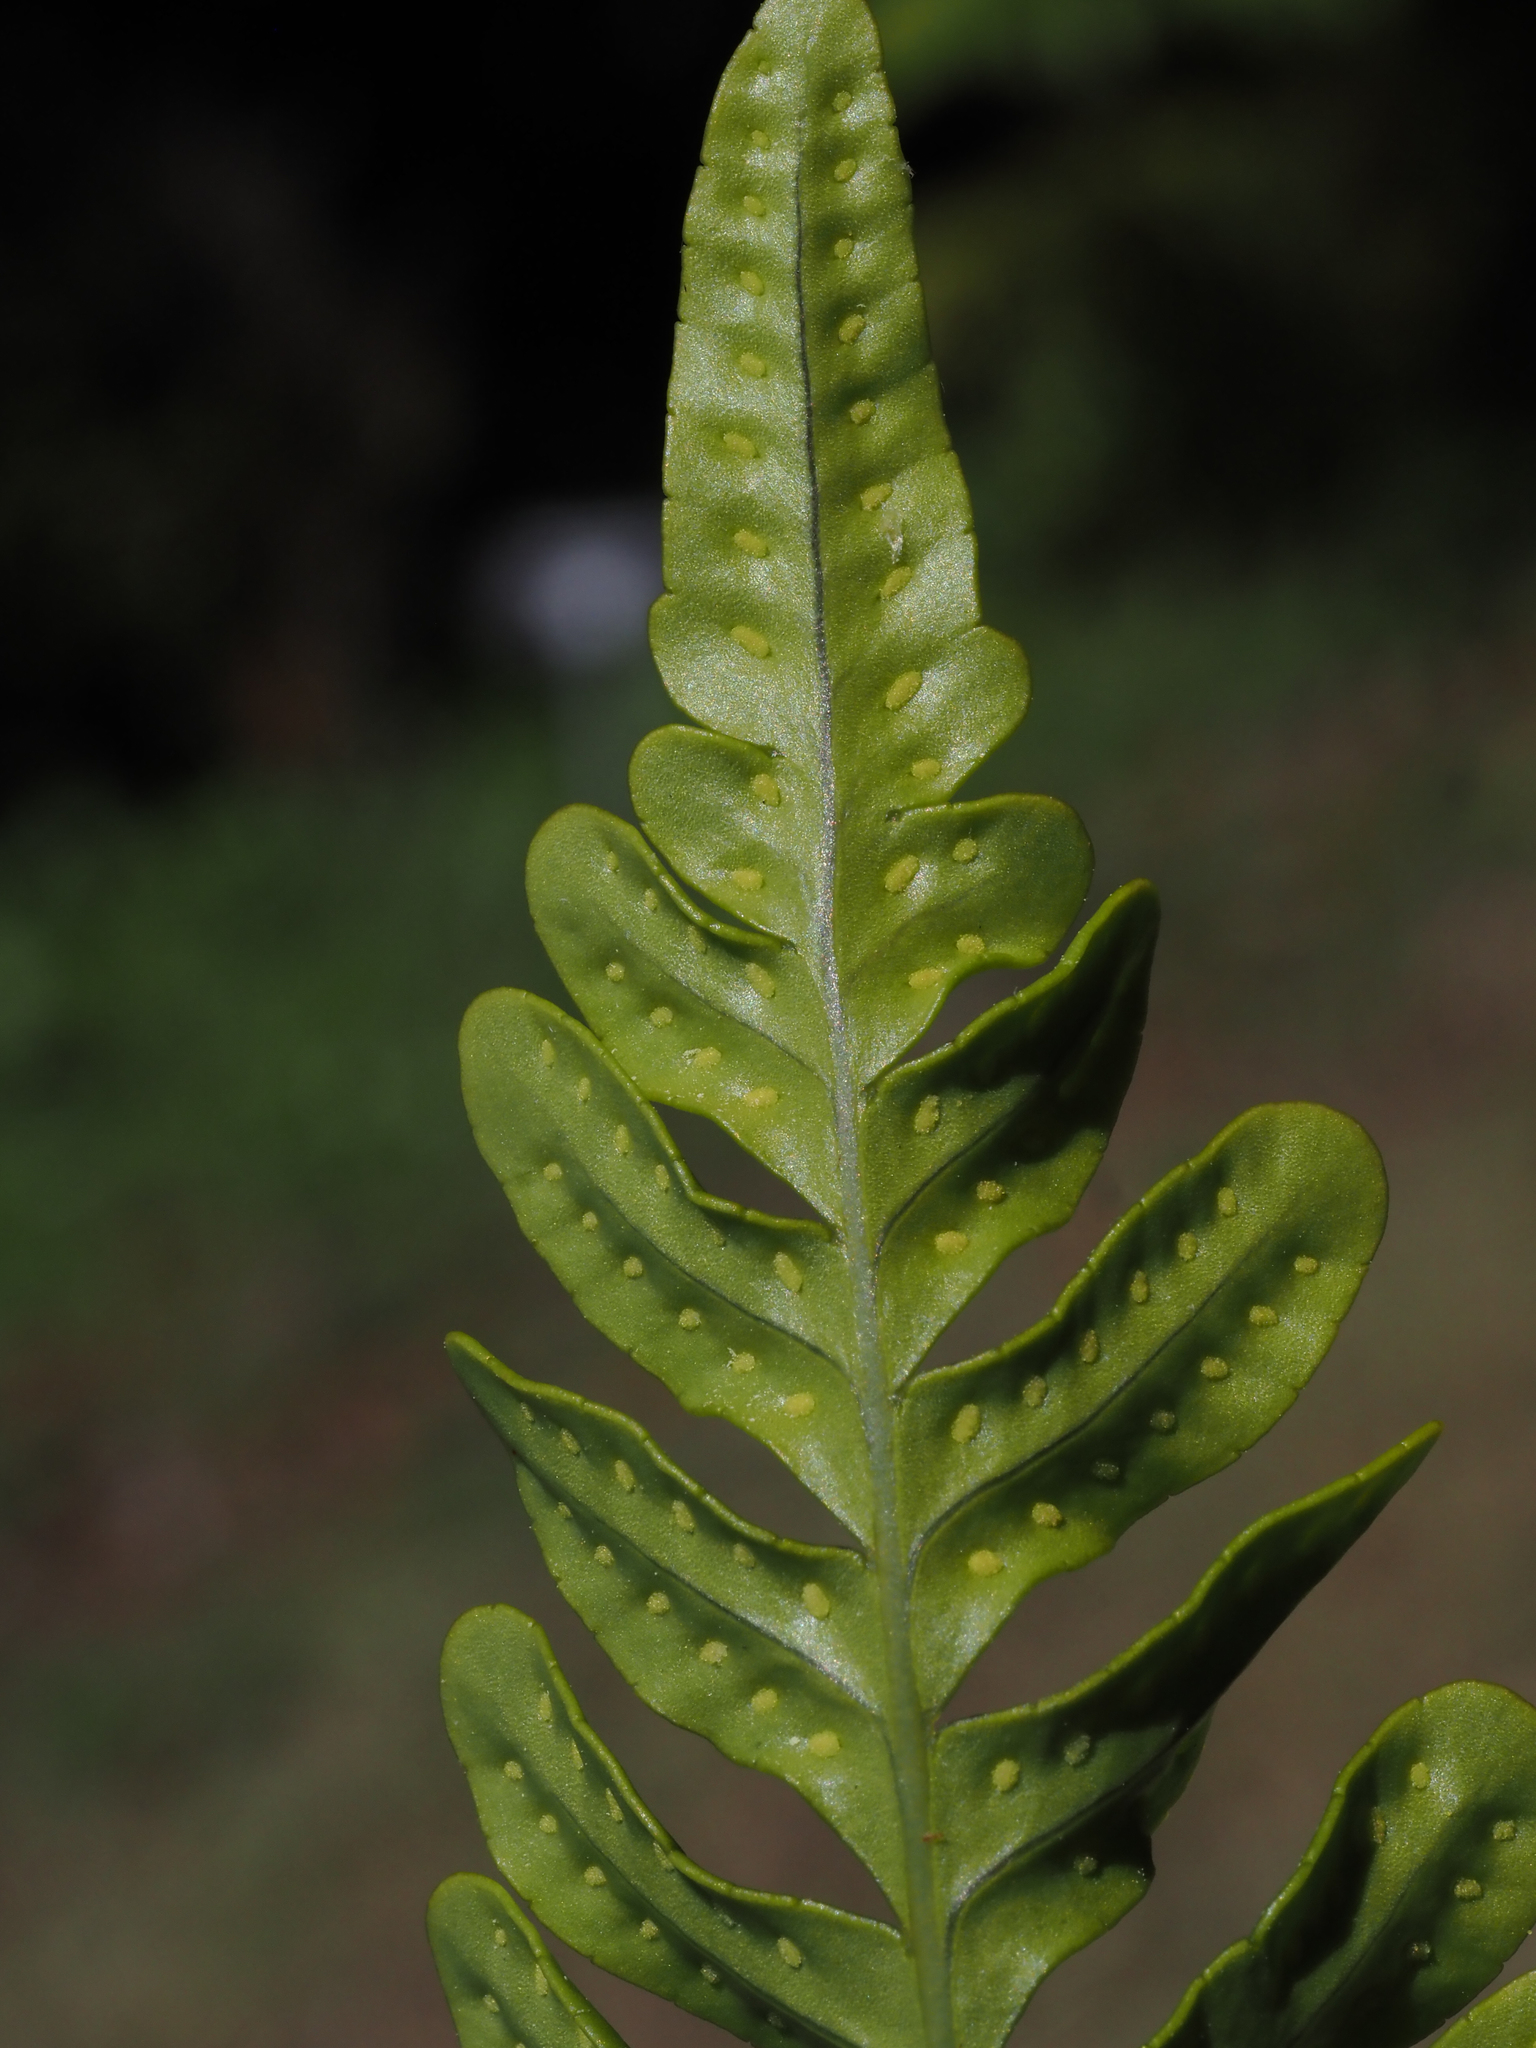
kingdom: Plantae
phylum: Tracheophyta
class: Polypodiopsida
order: Polypodiales
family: Polypodiaceae
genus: Polypodium
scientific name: Polypodium scouleri
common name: Scouler's polypody
